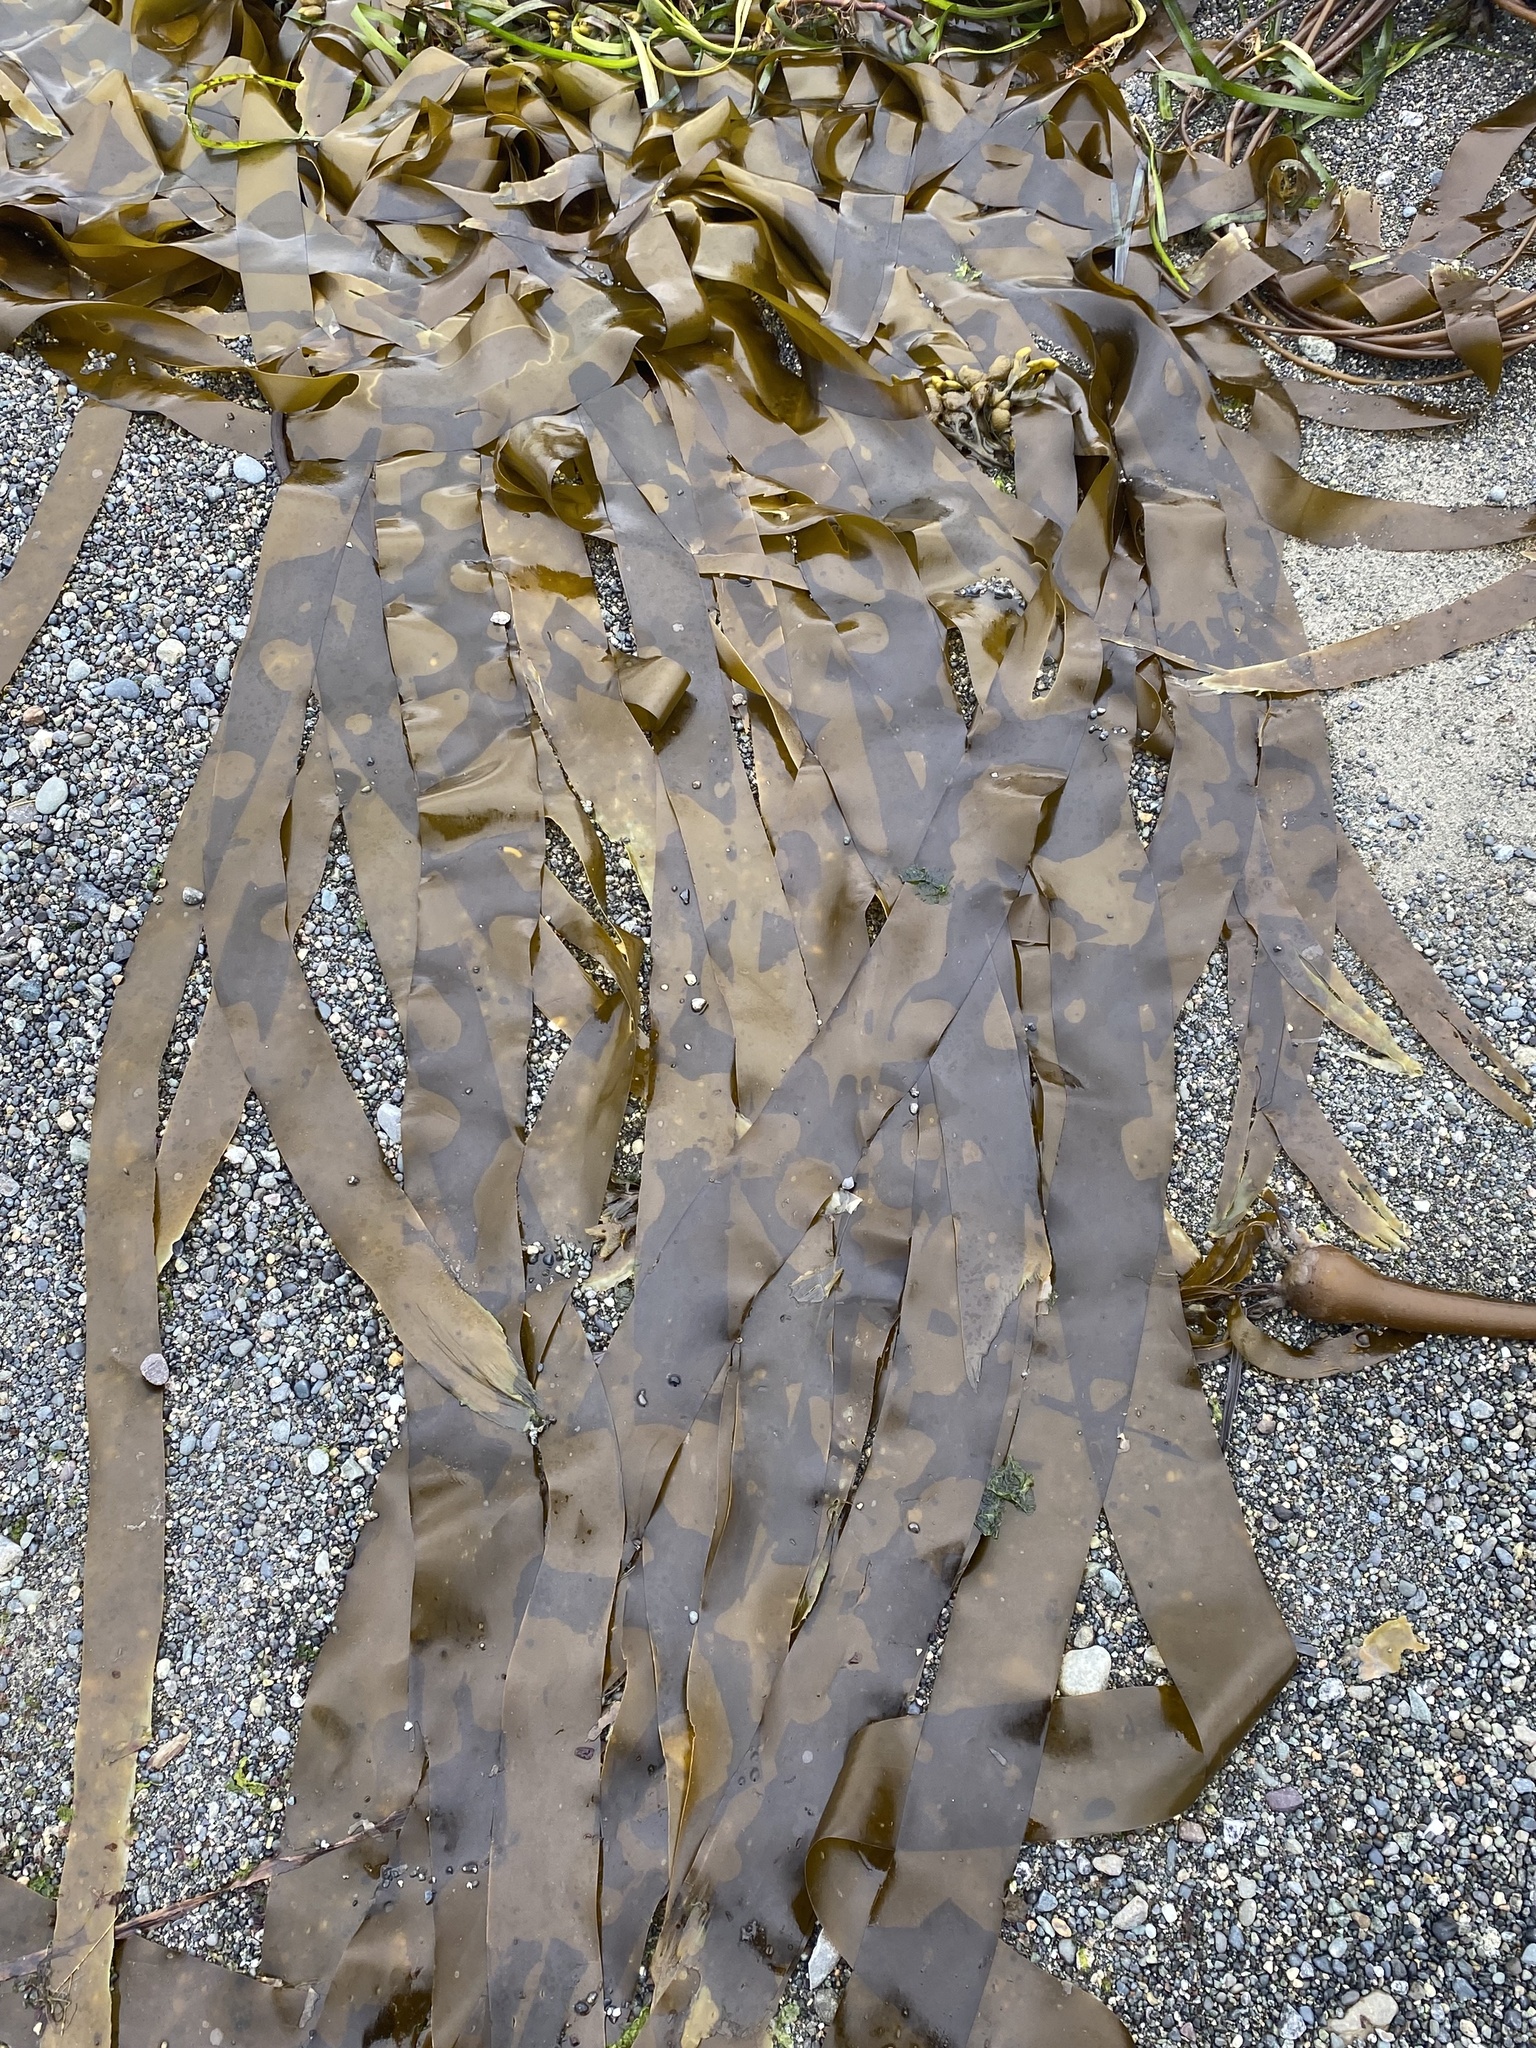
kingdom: Chromista
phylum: Ochrophyta
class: Phaeophyceae
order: Laminariales
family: Laminariaceae
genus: Nereocystis
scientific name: Nereocystis luetkeana
